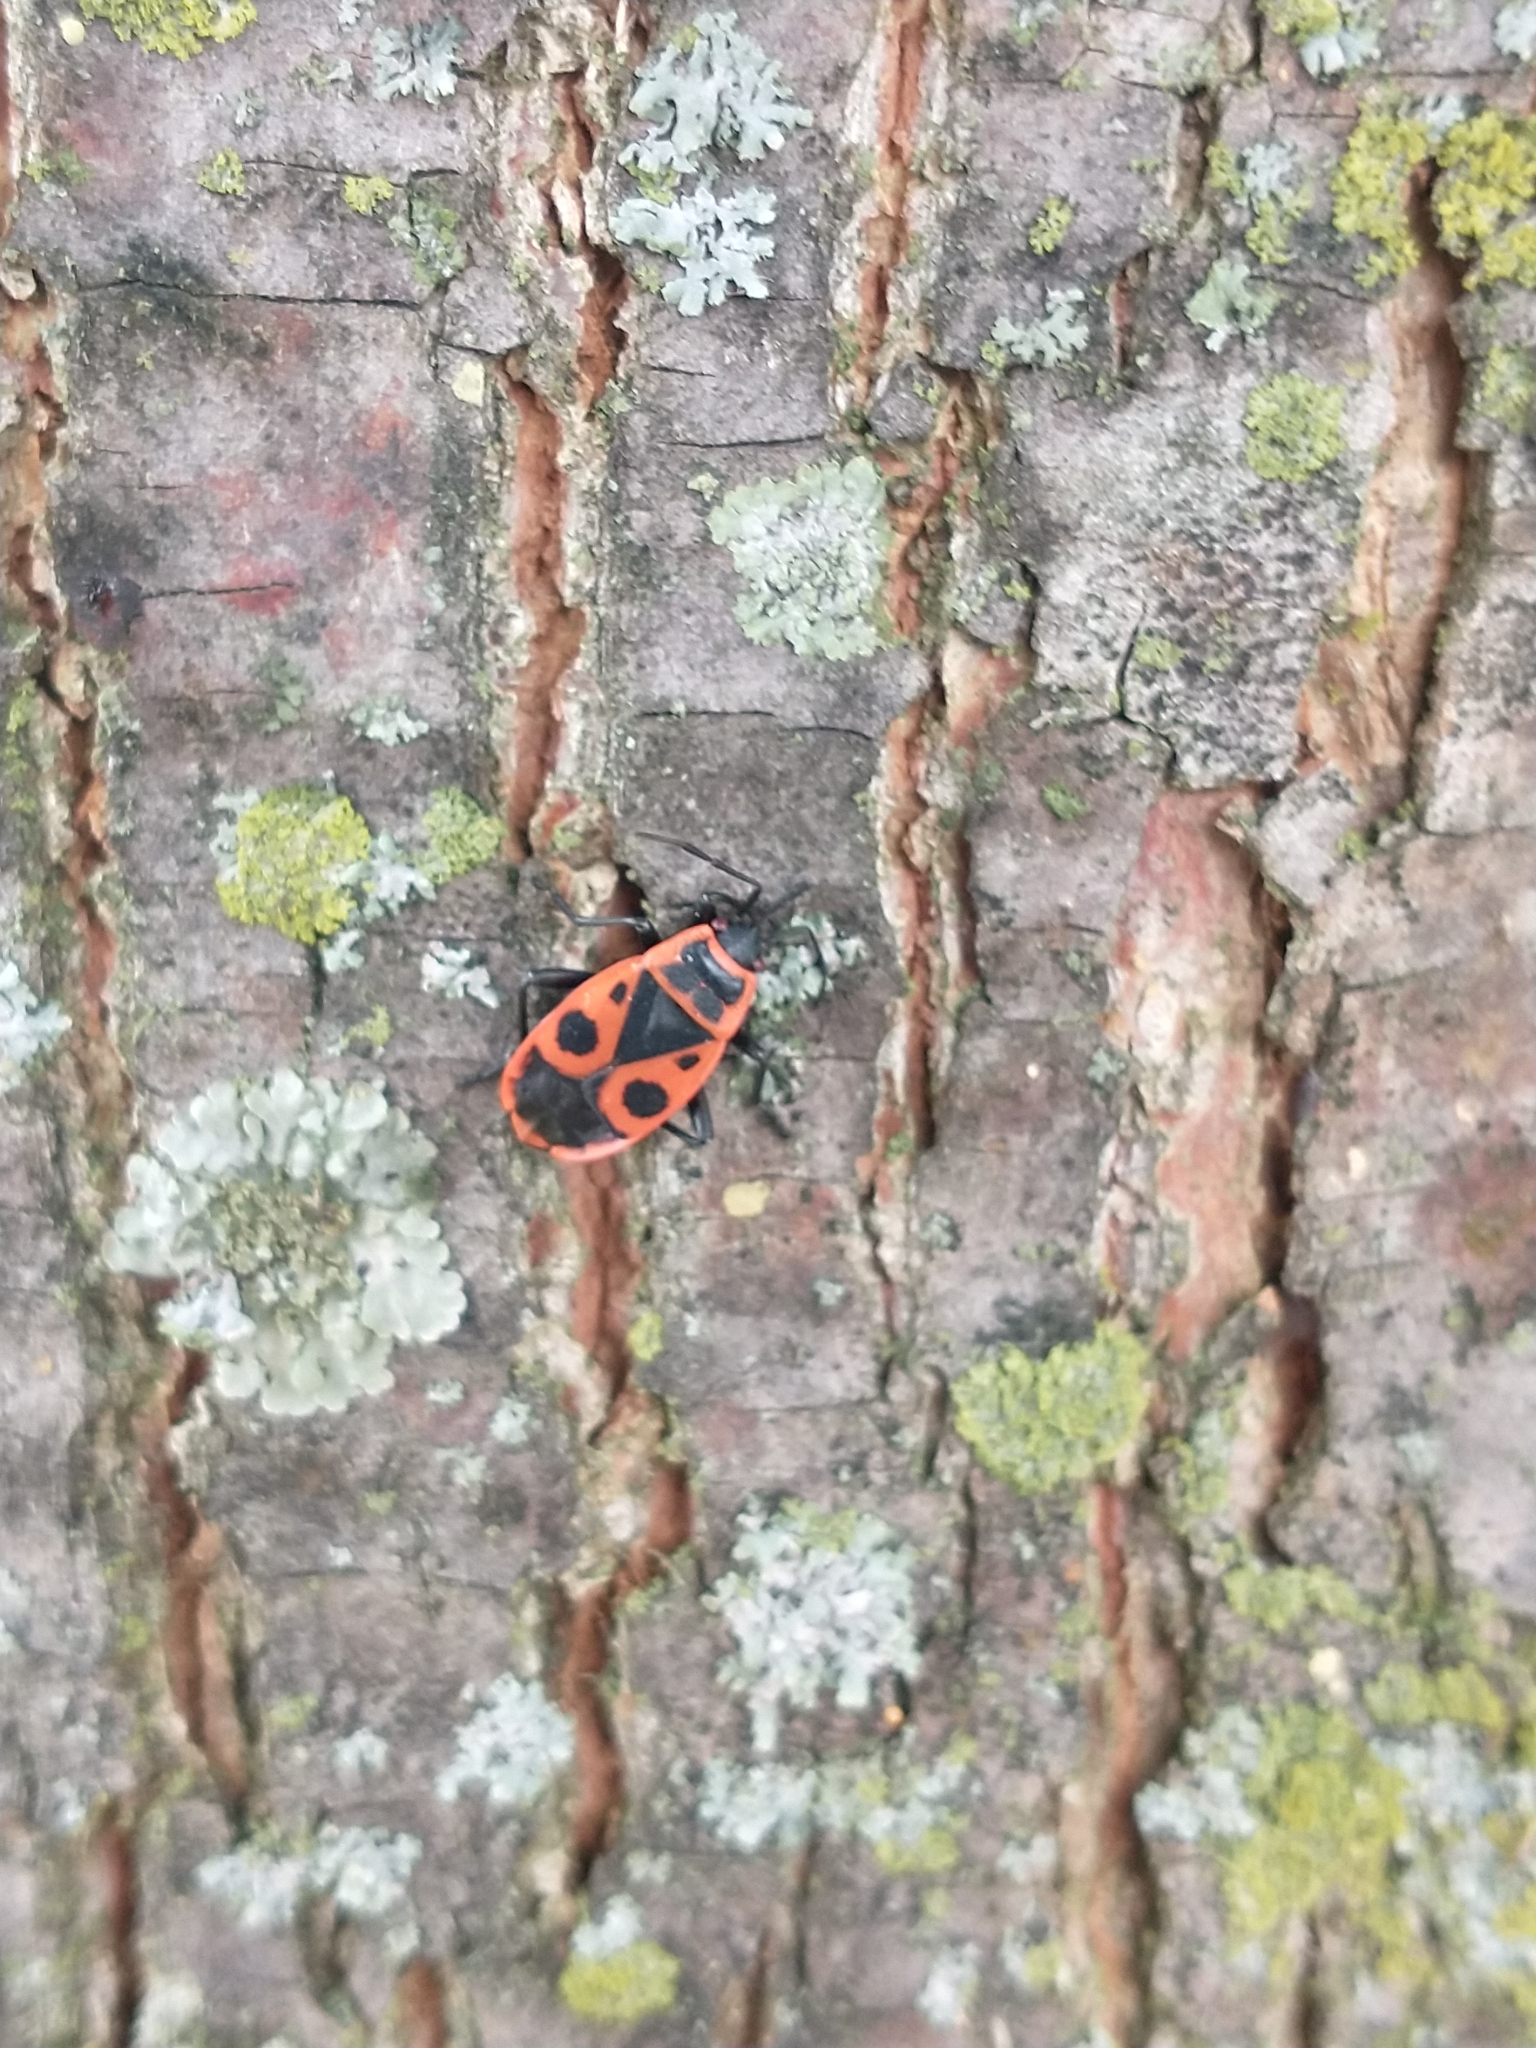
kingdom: Animalia
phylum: Arthropoda
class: Insecta
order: Hemiptera
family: Pyrrhocoridae
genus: Pyrrhocoris
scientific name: Pyrrhocoris apterus
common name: Firebug
